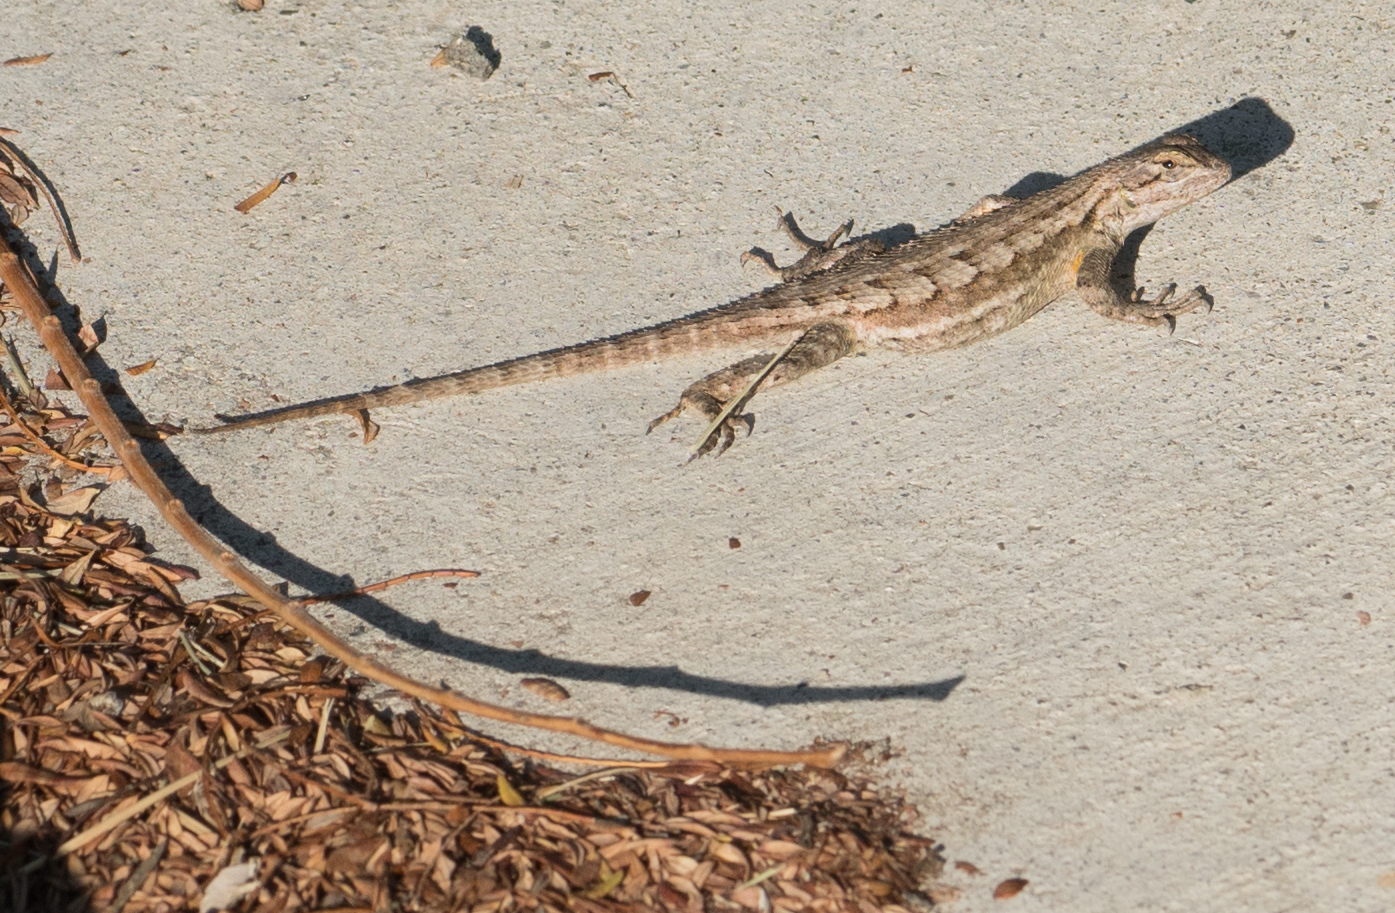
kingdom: Animalia
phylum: Chordata
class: Squamata
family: Phrynosomatidae
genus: Sceloporus
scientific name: Sceloporus occidentalis
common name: Western fence lizard
